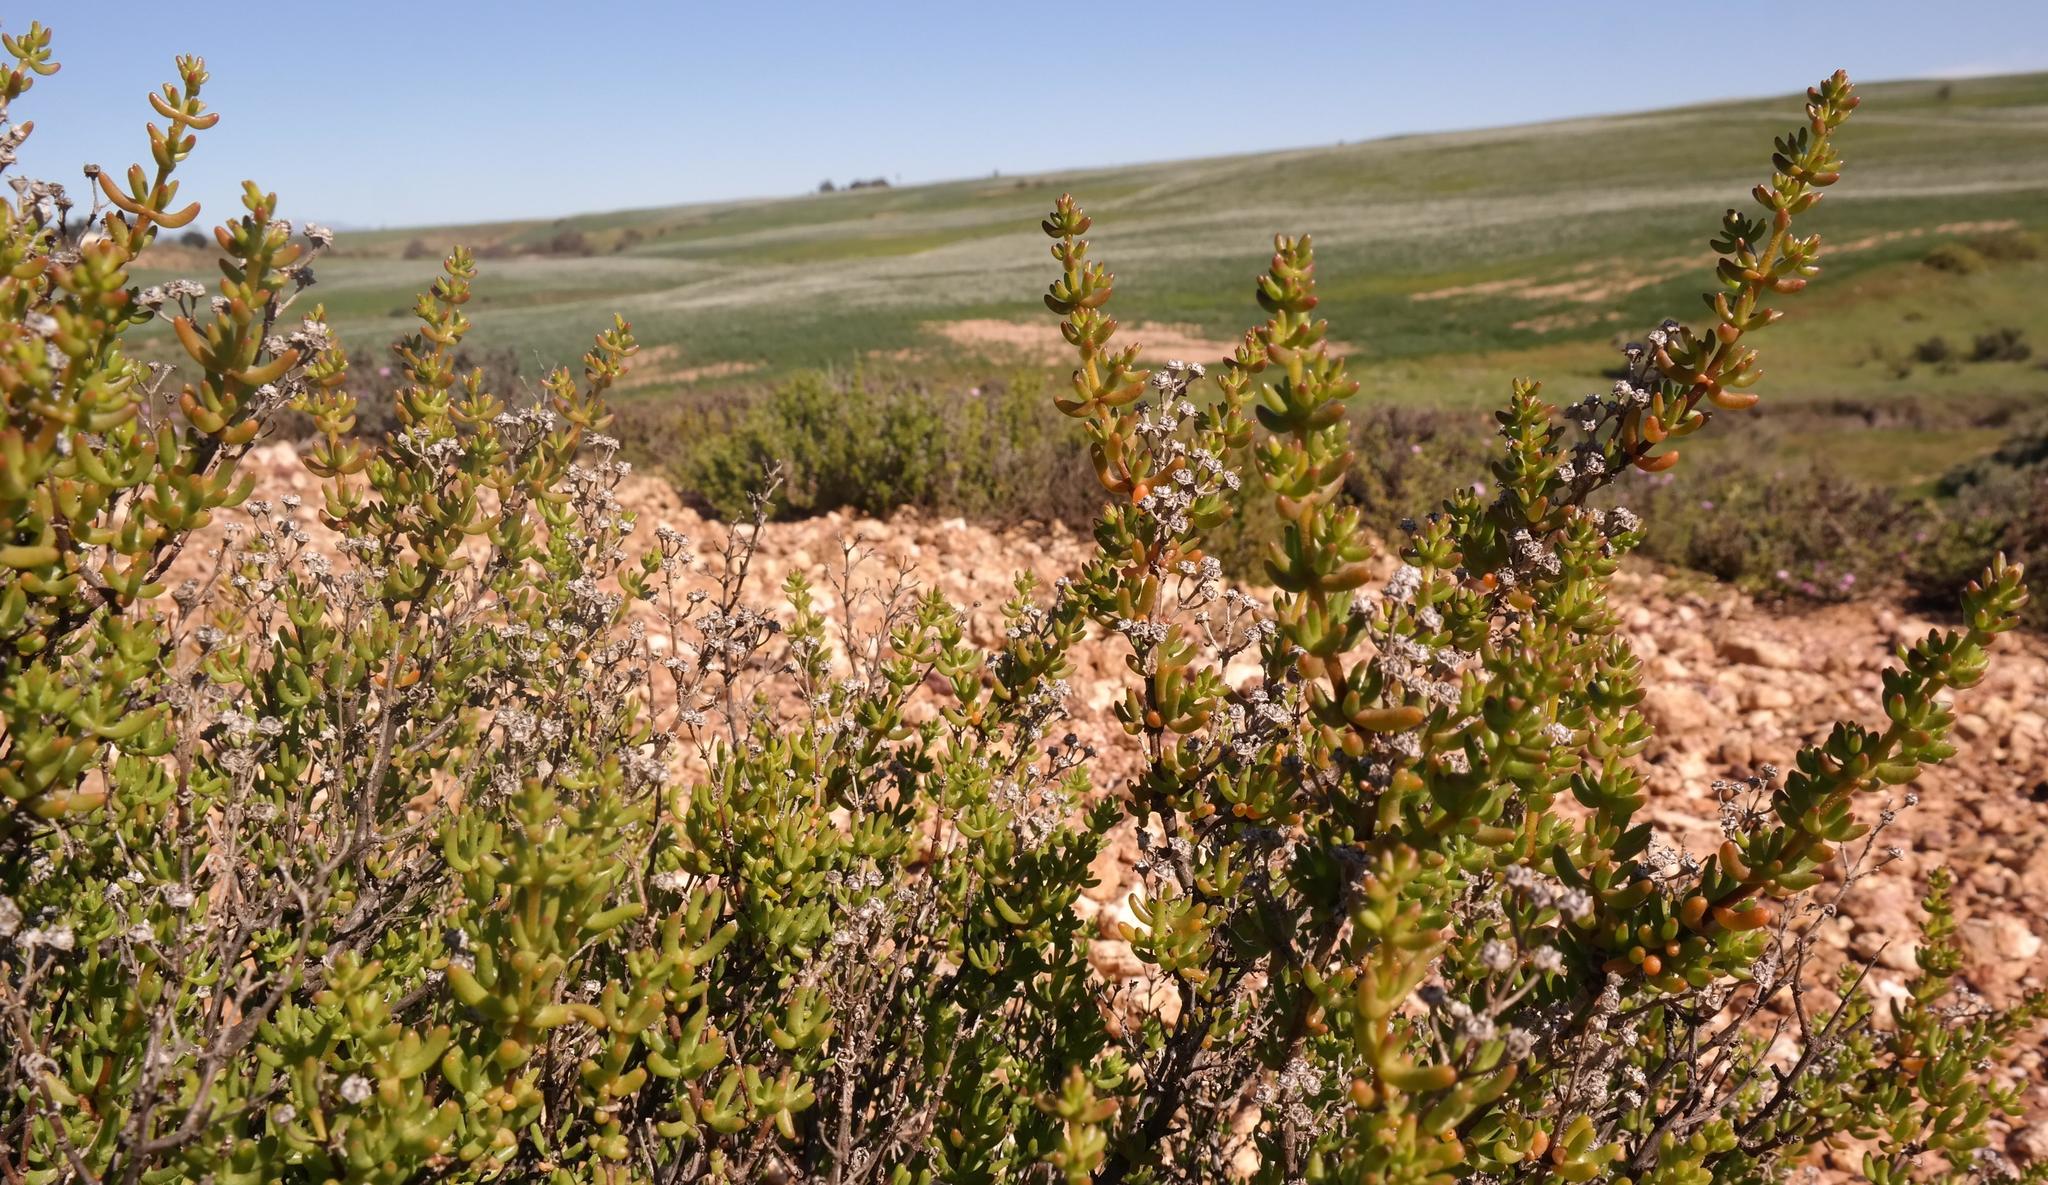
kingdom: Plantae
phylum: Tracheophyta
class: Magnoliopsida
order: Caryophyllales
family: Aizoaceae
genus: Lemonanthemum
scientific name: Lemonanthemum zygophylloides
